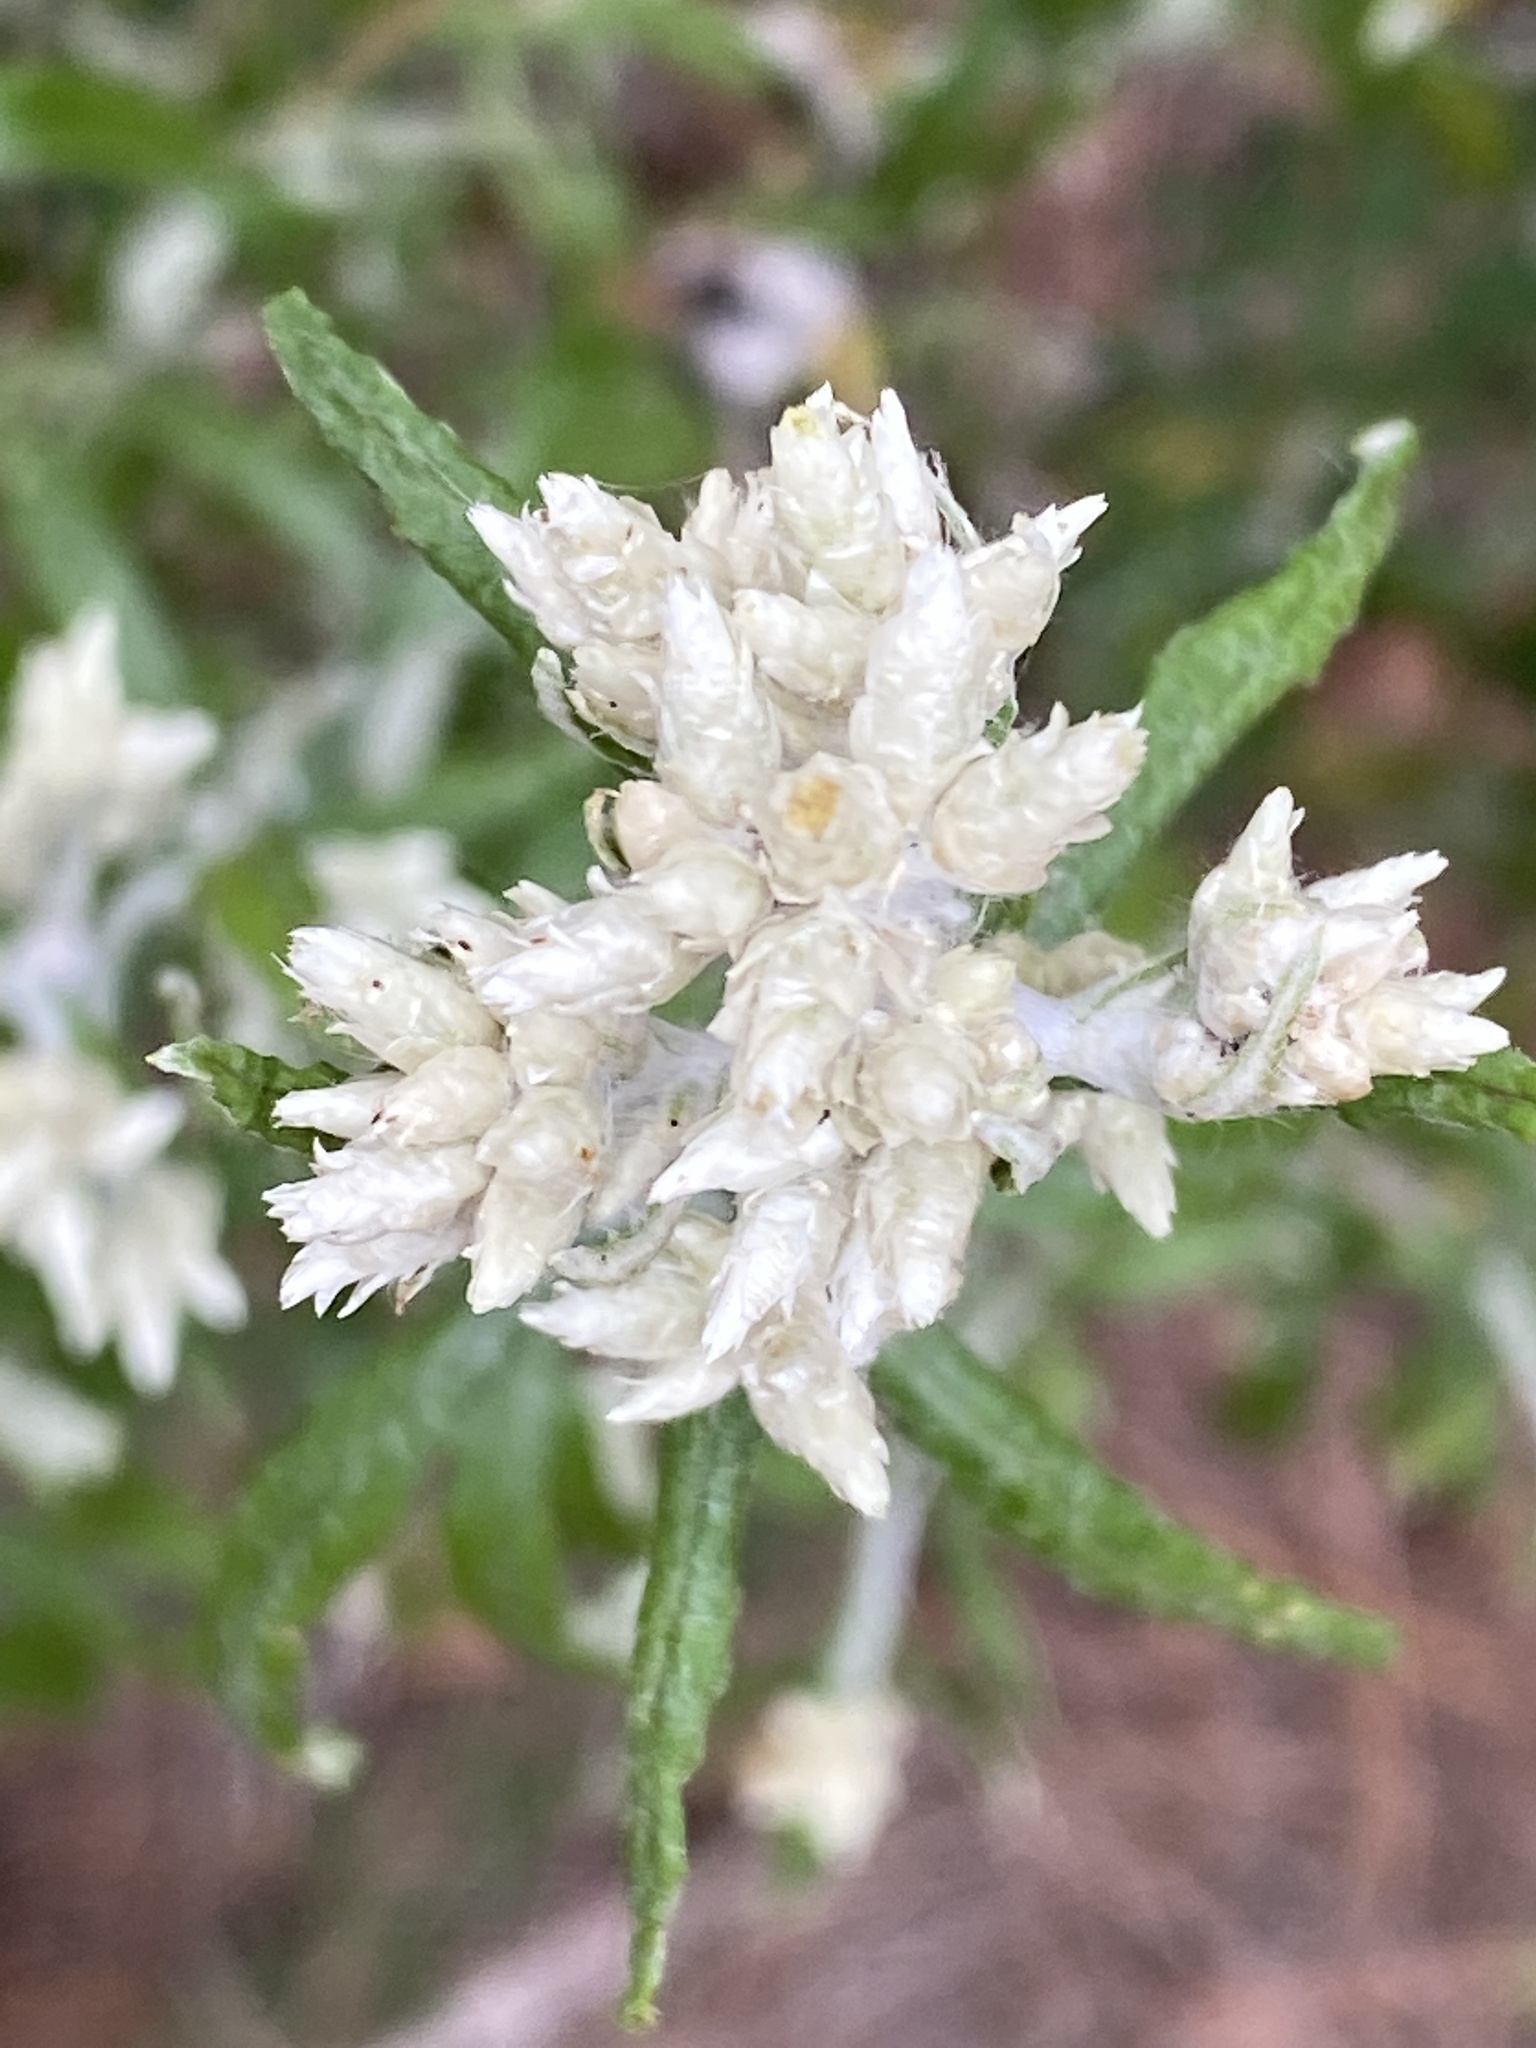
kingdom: Plantae
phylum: Tracheophyta
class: Magnoliopsida
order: Asterales
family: Asteraceae
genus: Pseudognaphalium
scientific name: Pseudognaphalium obtusifolium
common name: Eastern rabbit-tobacco
